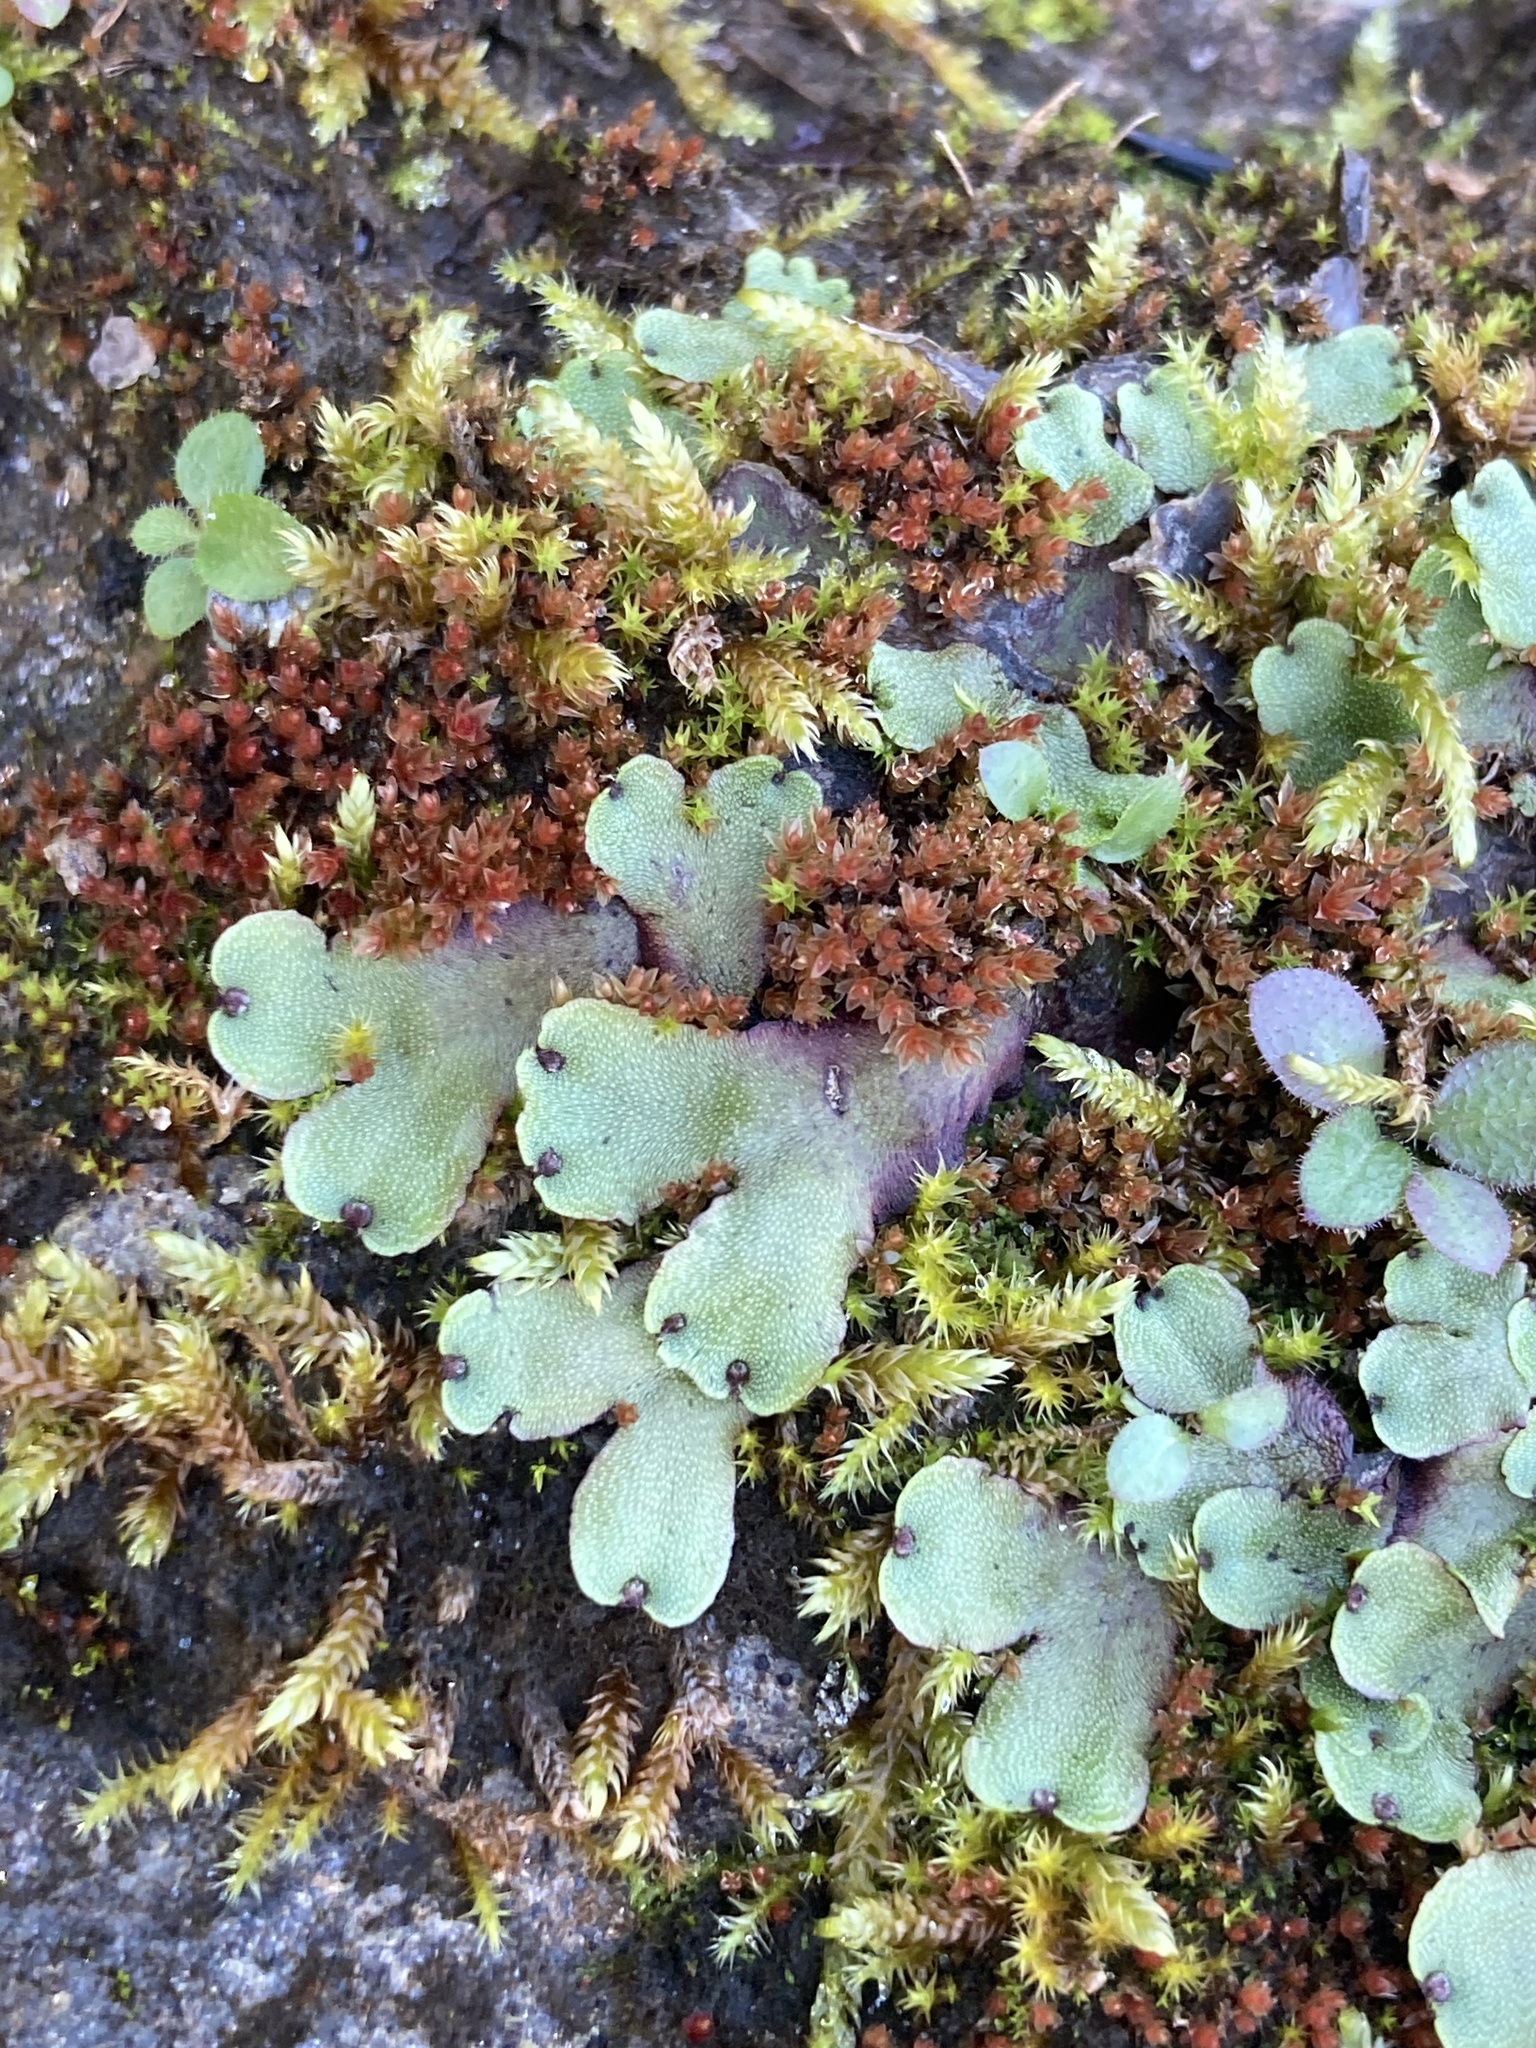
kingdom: Plantae
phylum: Marchantiophyta
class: Marchantiopsida
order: Marchantiales
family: Marchantiaceae
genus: Marchantia
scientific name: Marchantia quadrata
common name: Narrow mushroom-headed liverwort
